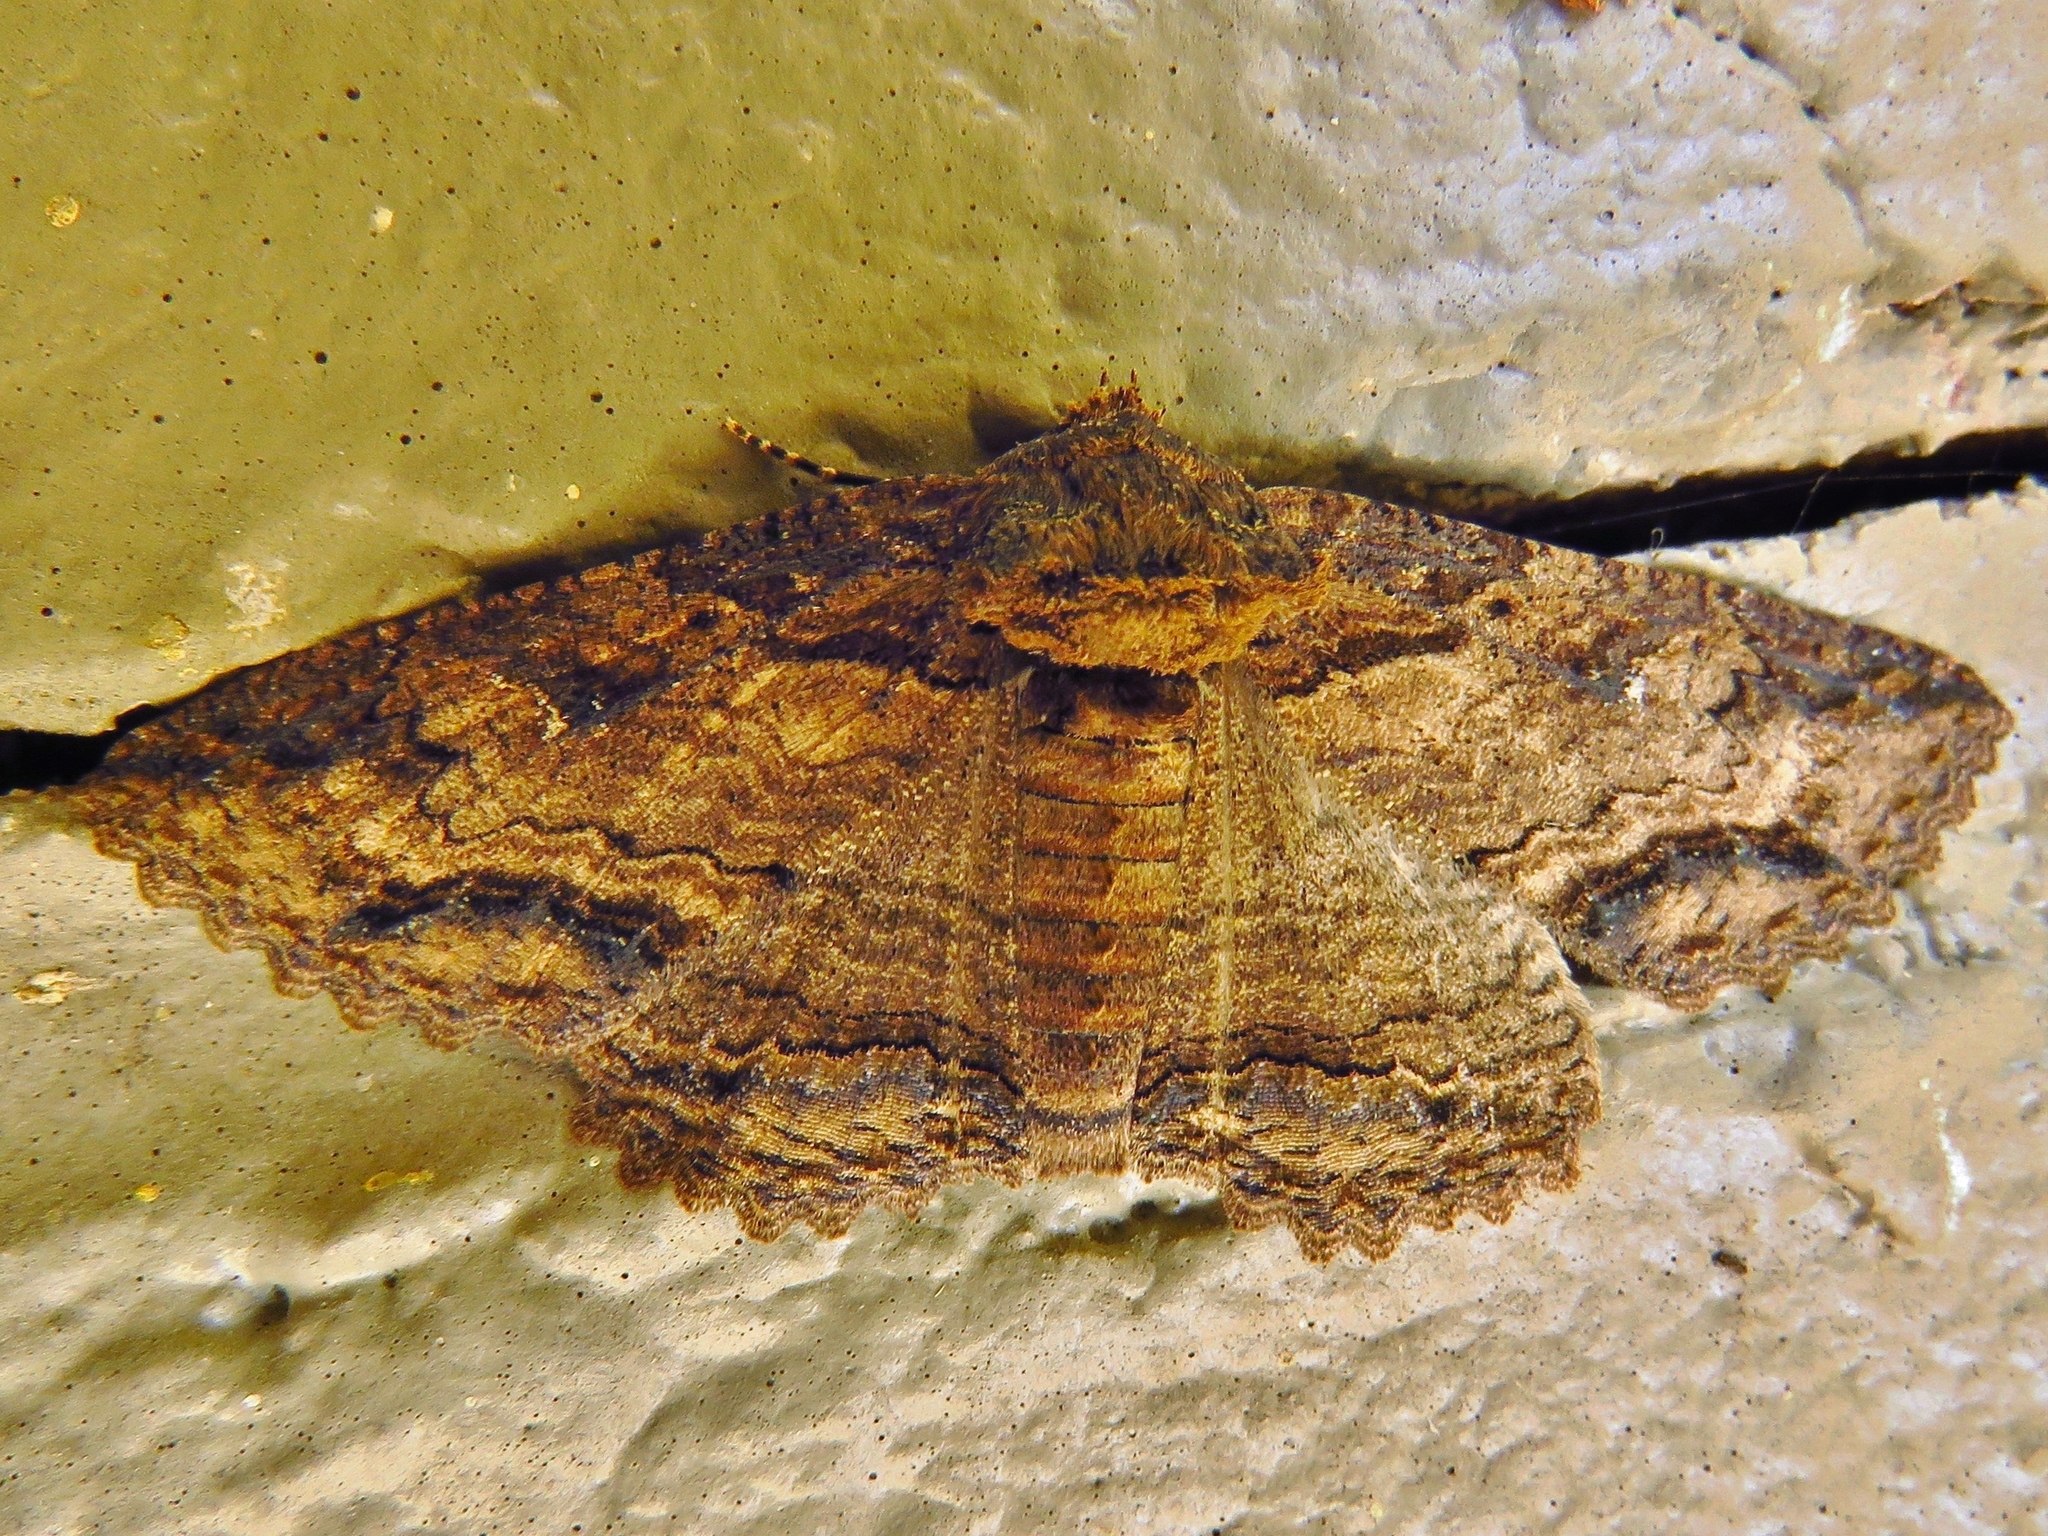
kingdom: Animalia
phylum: Arthropoda
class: Insecta
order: Lepidoptera
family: Erebidae
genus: Zale
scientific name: Zale lunata
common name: Lunate zale moth
